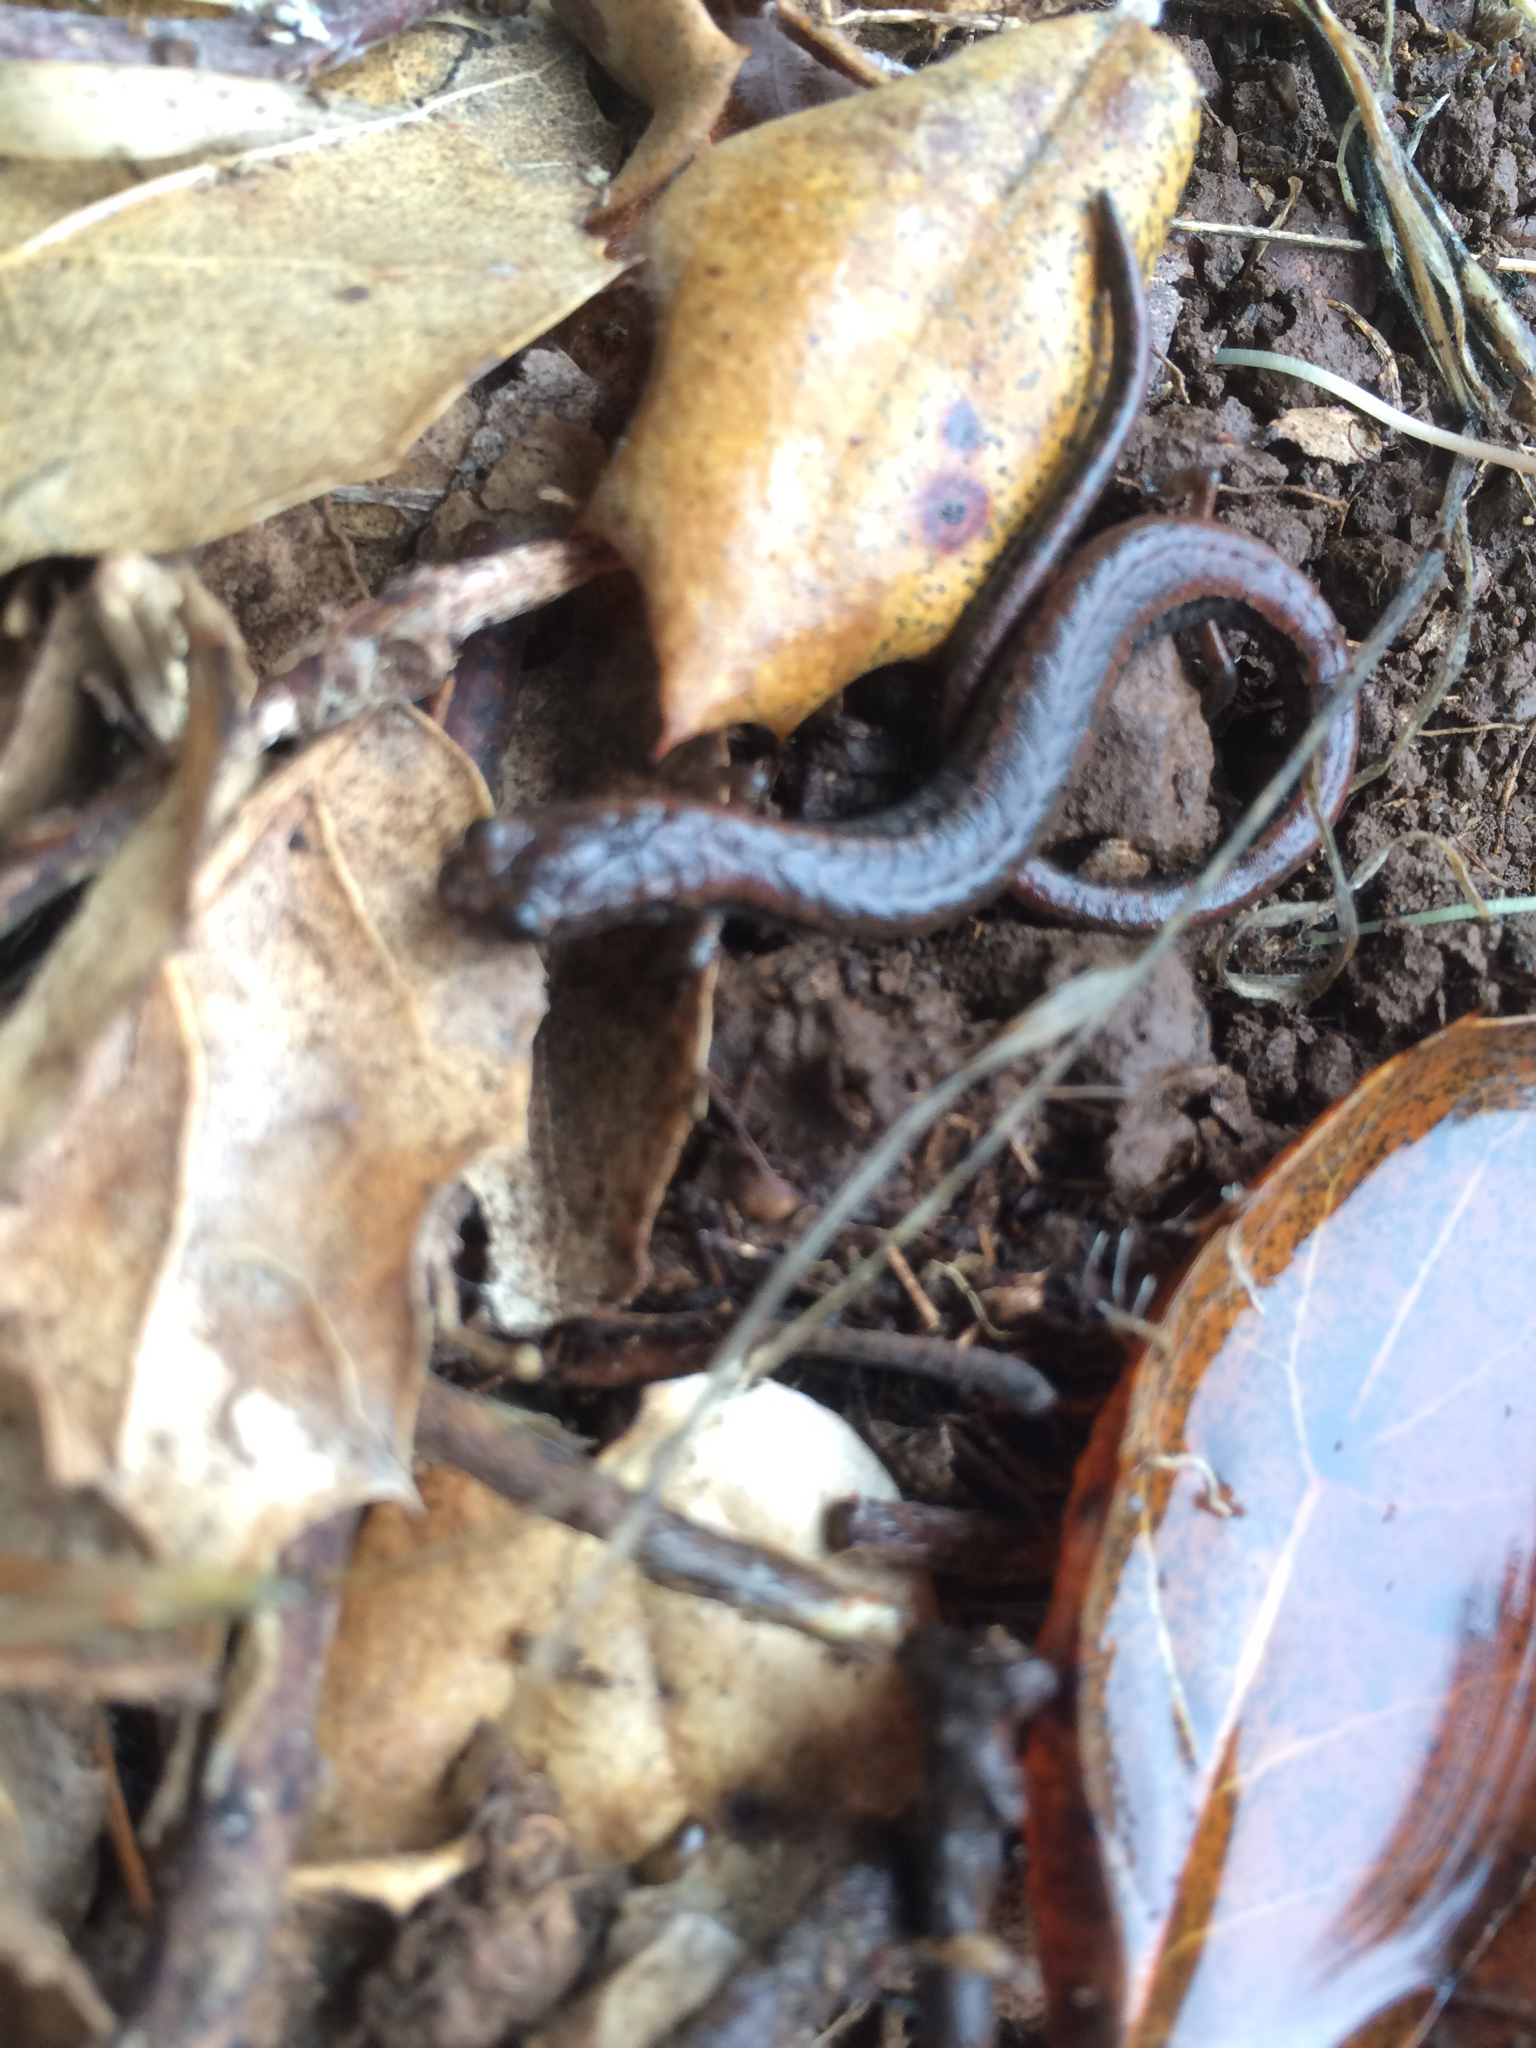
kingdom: Animalia
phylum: Chordata
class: Amphibia
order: Caudata
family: Plethodontidae
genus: Batrachoseps
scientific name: Batrachoseps attenuatus
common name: California slender salamander
